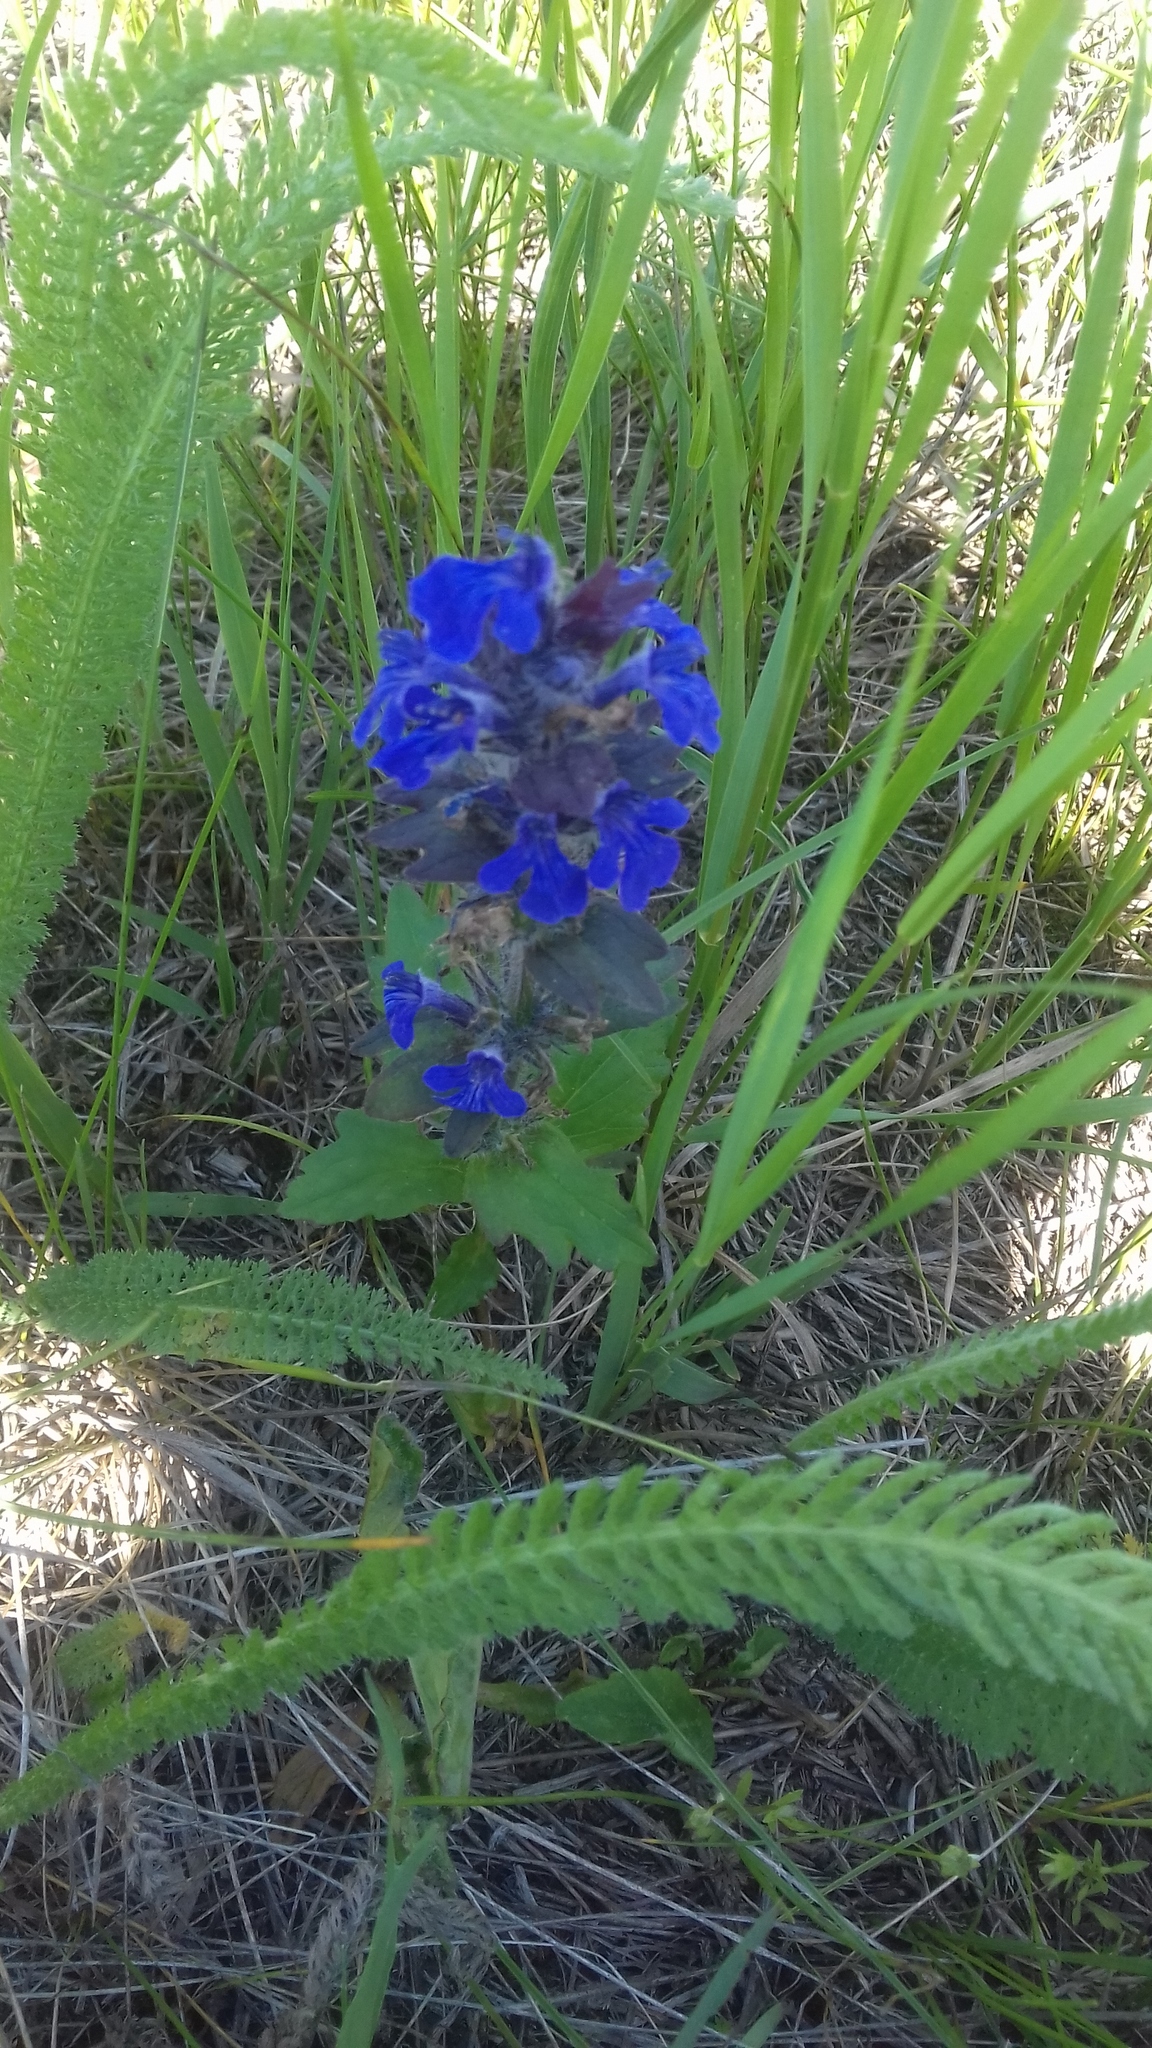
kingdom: Plantae
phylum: Tracheophyta
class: Magnoliopsida
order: Lamiales
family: Lamiaceae
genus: Ajuga
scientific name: Ajuga genevensis
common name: Blue bugle
